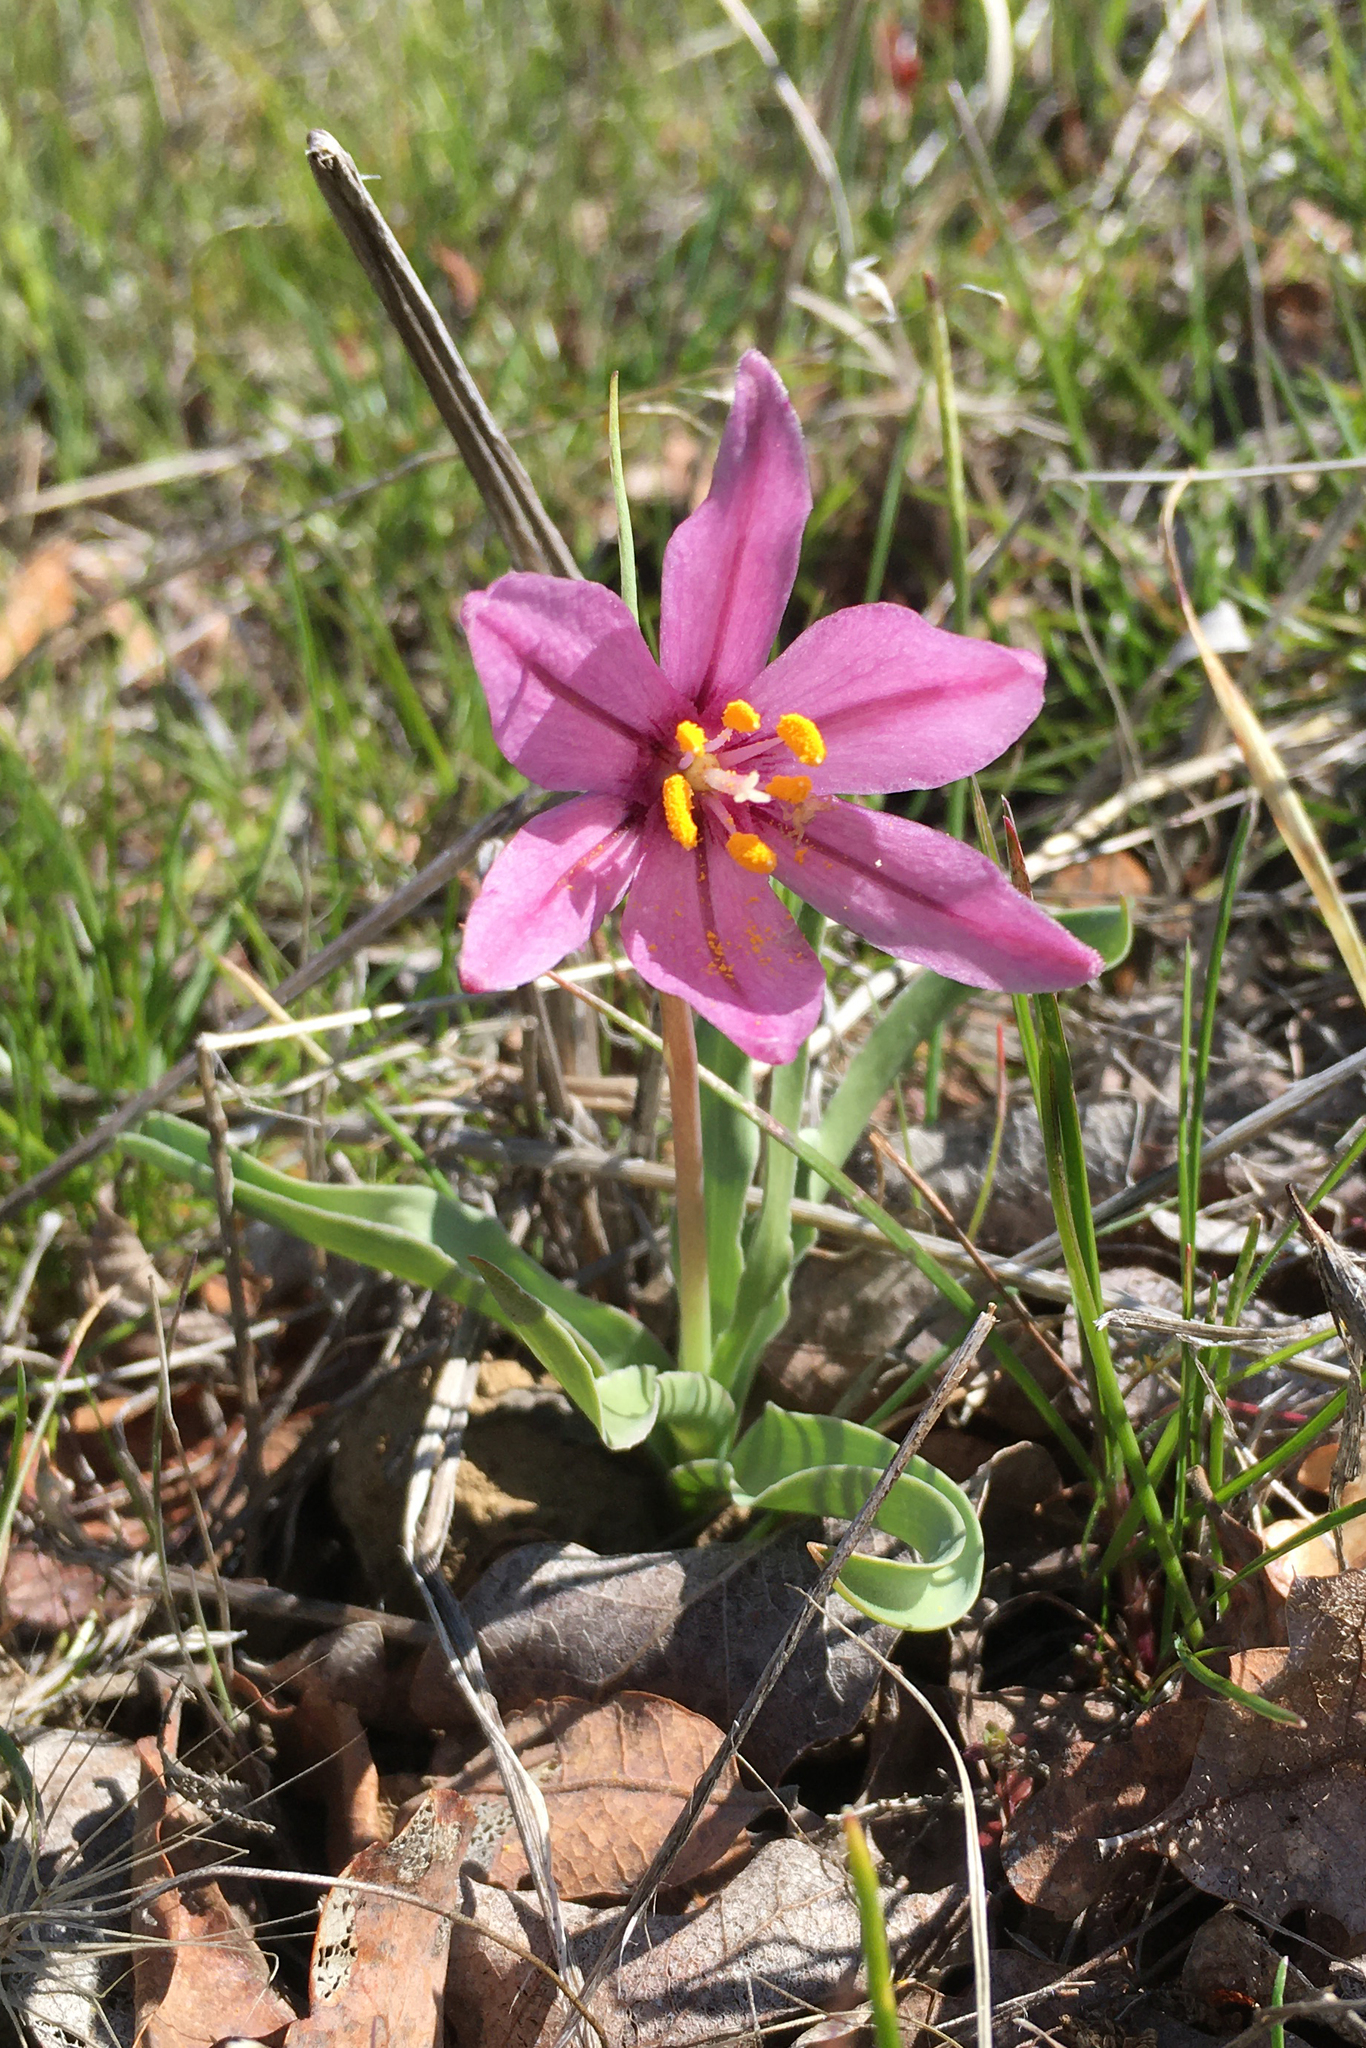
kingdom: Plantae
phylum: Tracheophyta
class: Liliopsida
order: Liliales
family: Liliaceae
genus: Fritillaria
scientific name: Fritillaria pluriflora
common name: Adobe-lily
